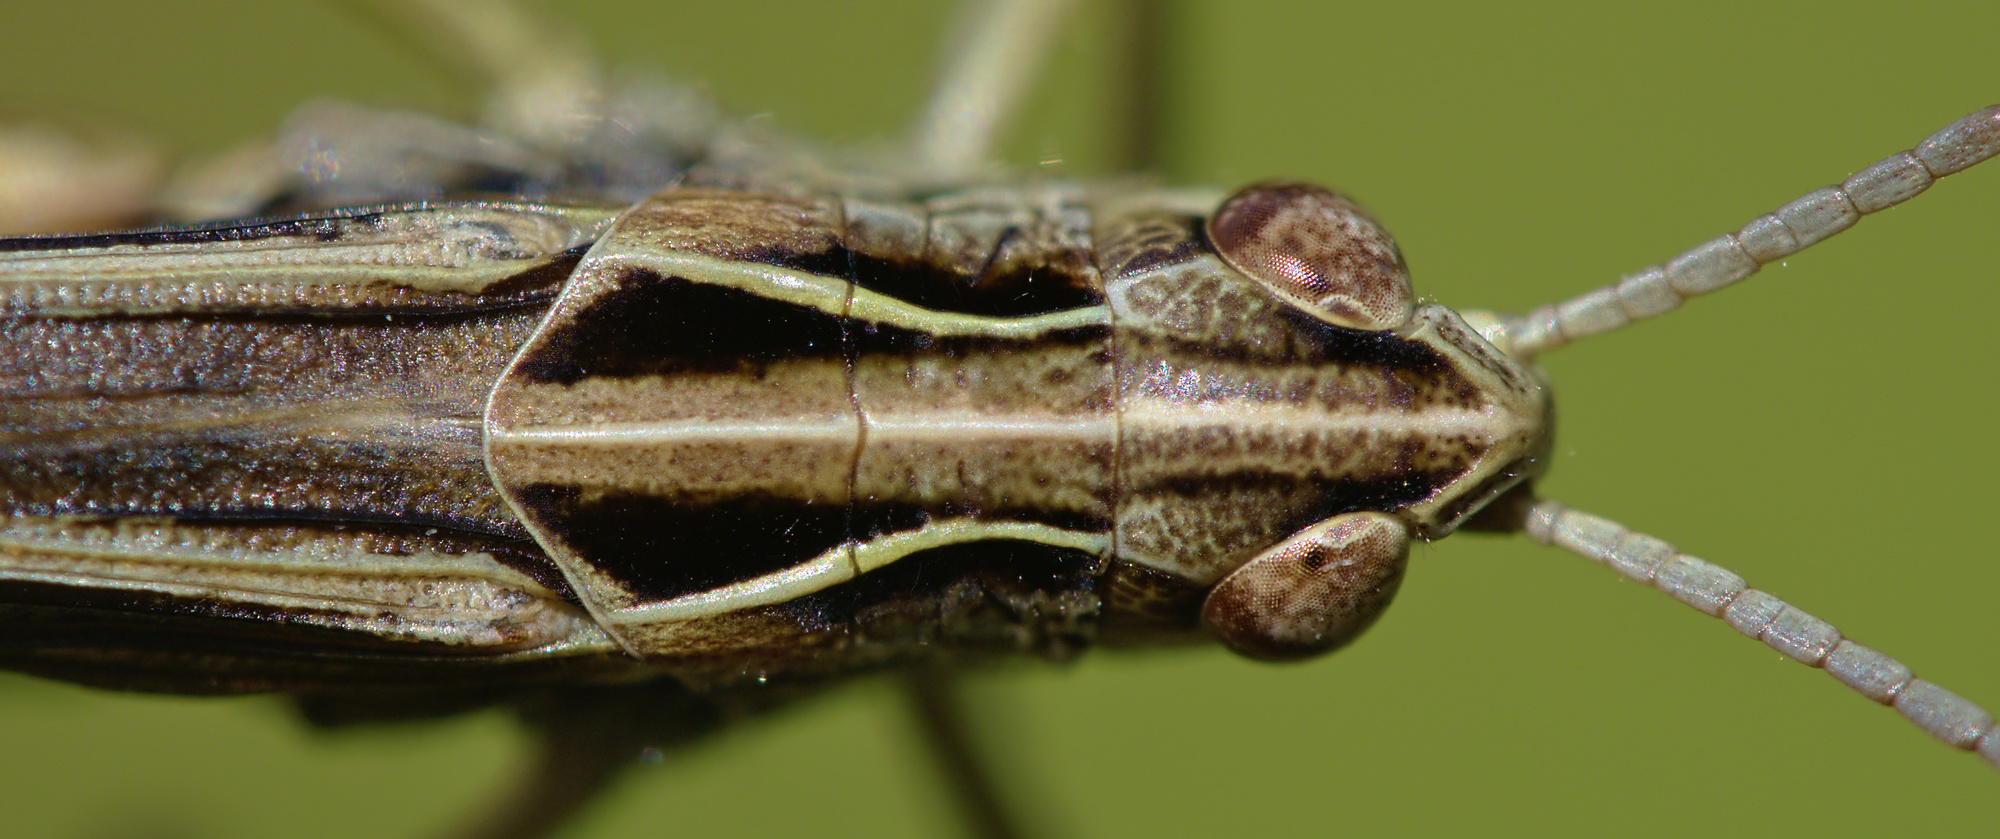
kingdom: Animalia
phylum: Arthropoda
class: Insecta
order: Orthoptera
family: Acrididae
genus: Omocestus
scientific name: Omocestus viridulus
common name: Common green grasshopper
